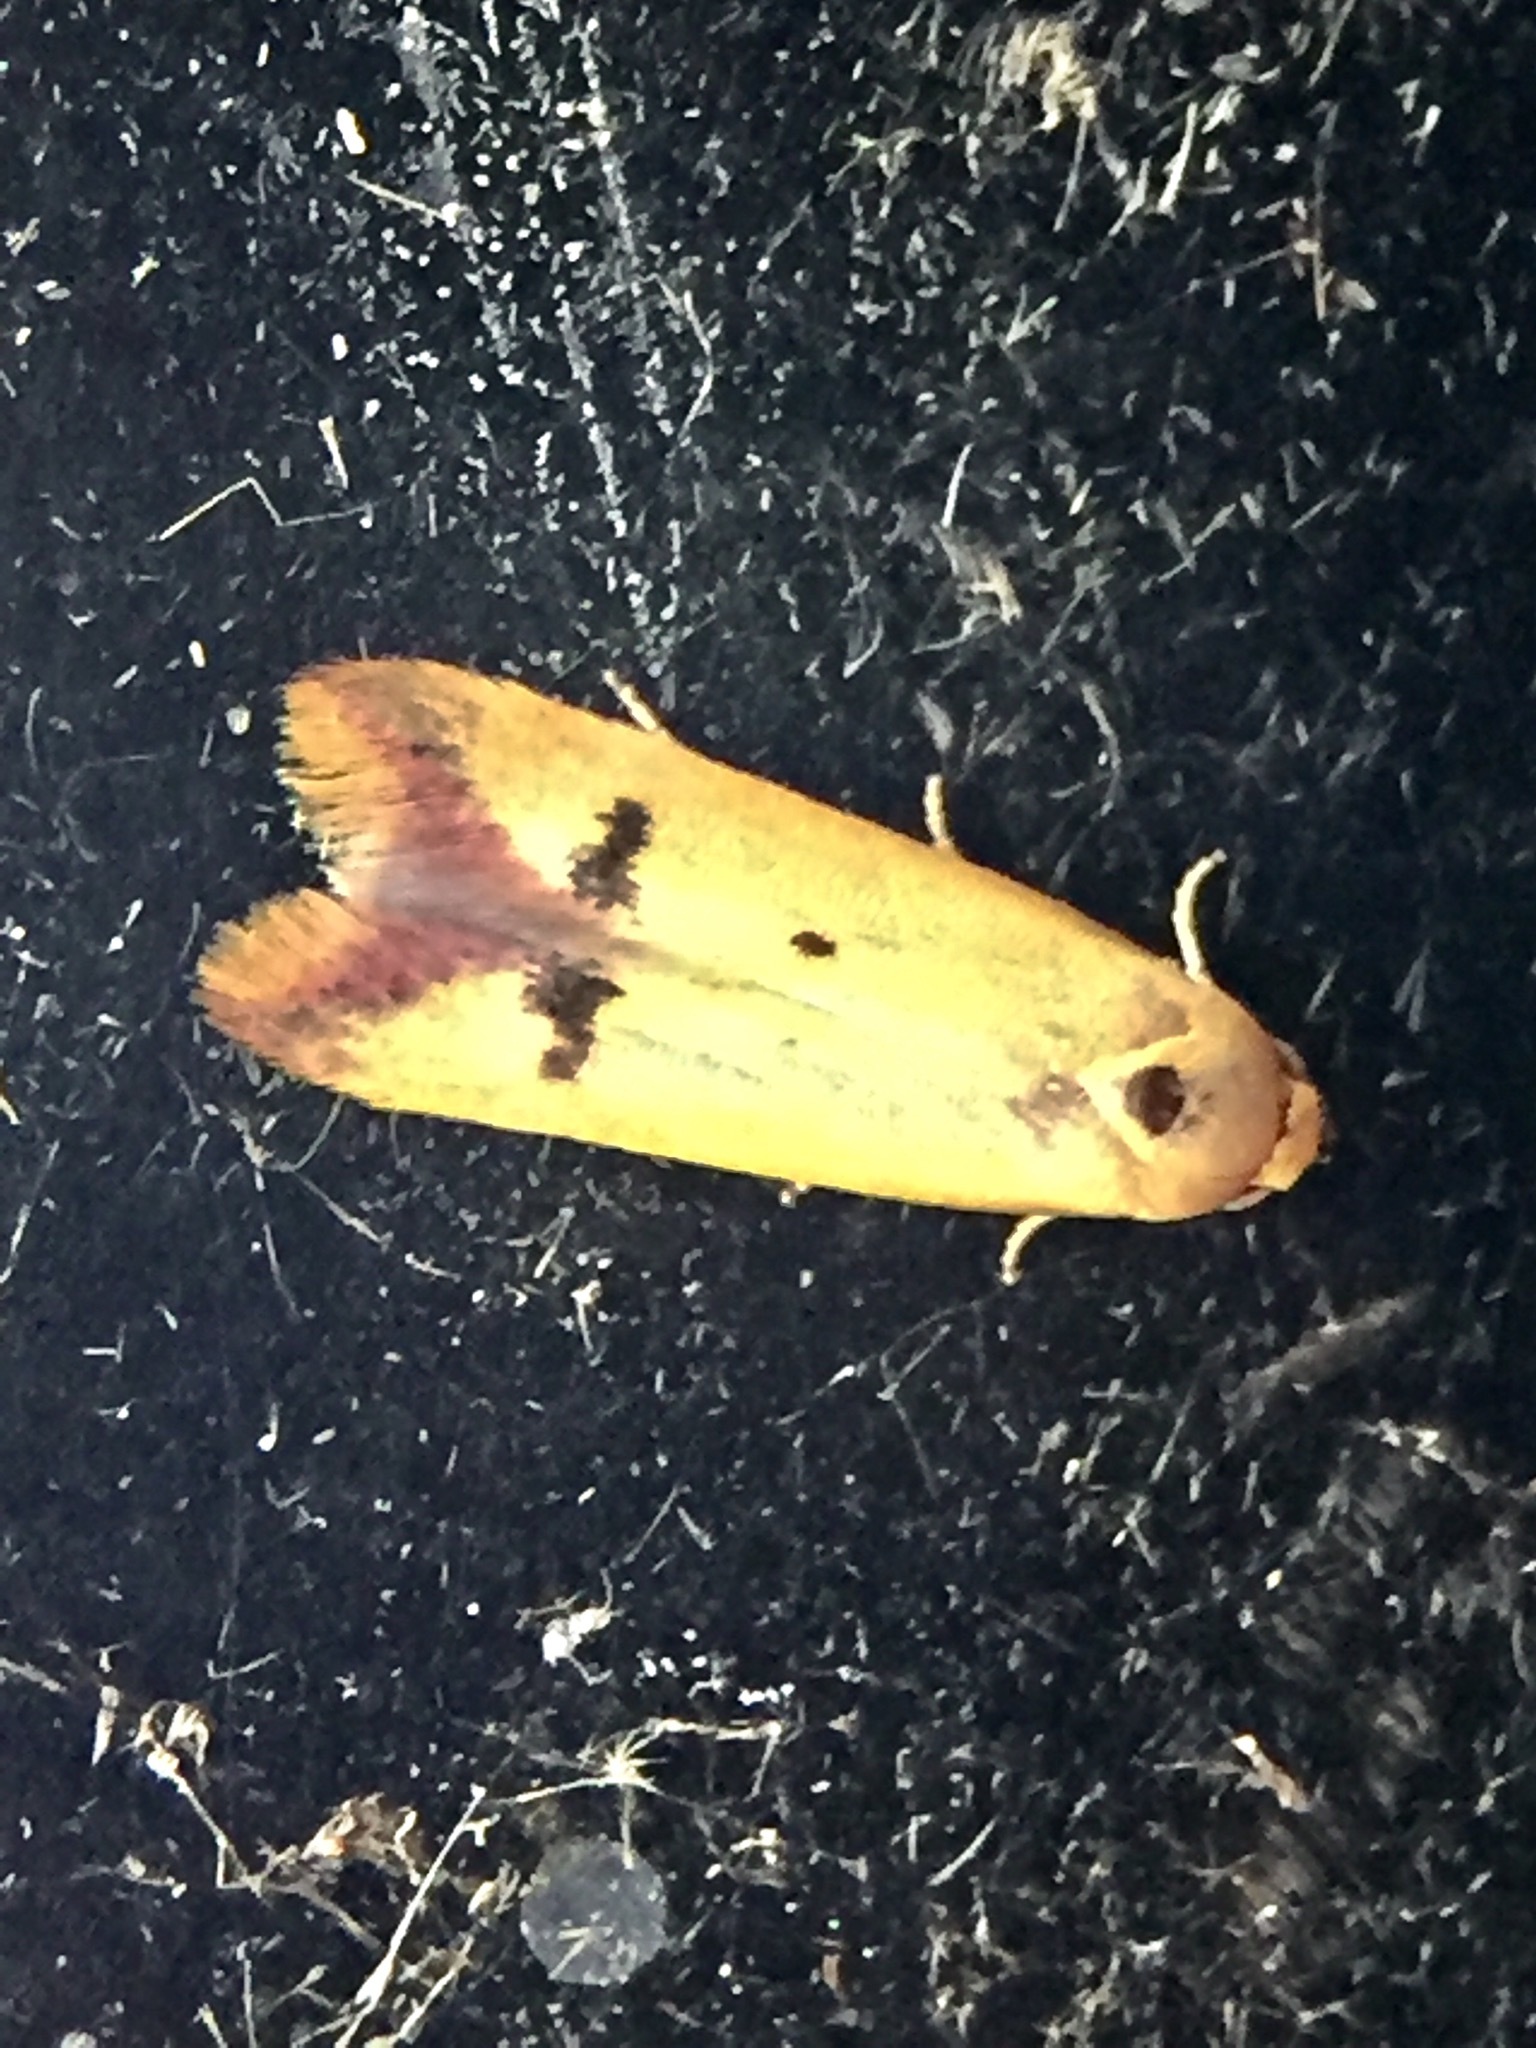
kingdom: Animalia
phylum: Arthropoda
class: Insecta
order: Lepidoptera
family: Oecophoridae
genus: Tachystola
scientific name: Tachystola hemisema
